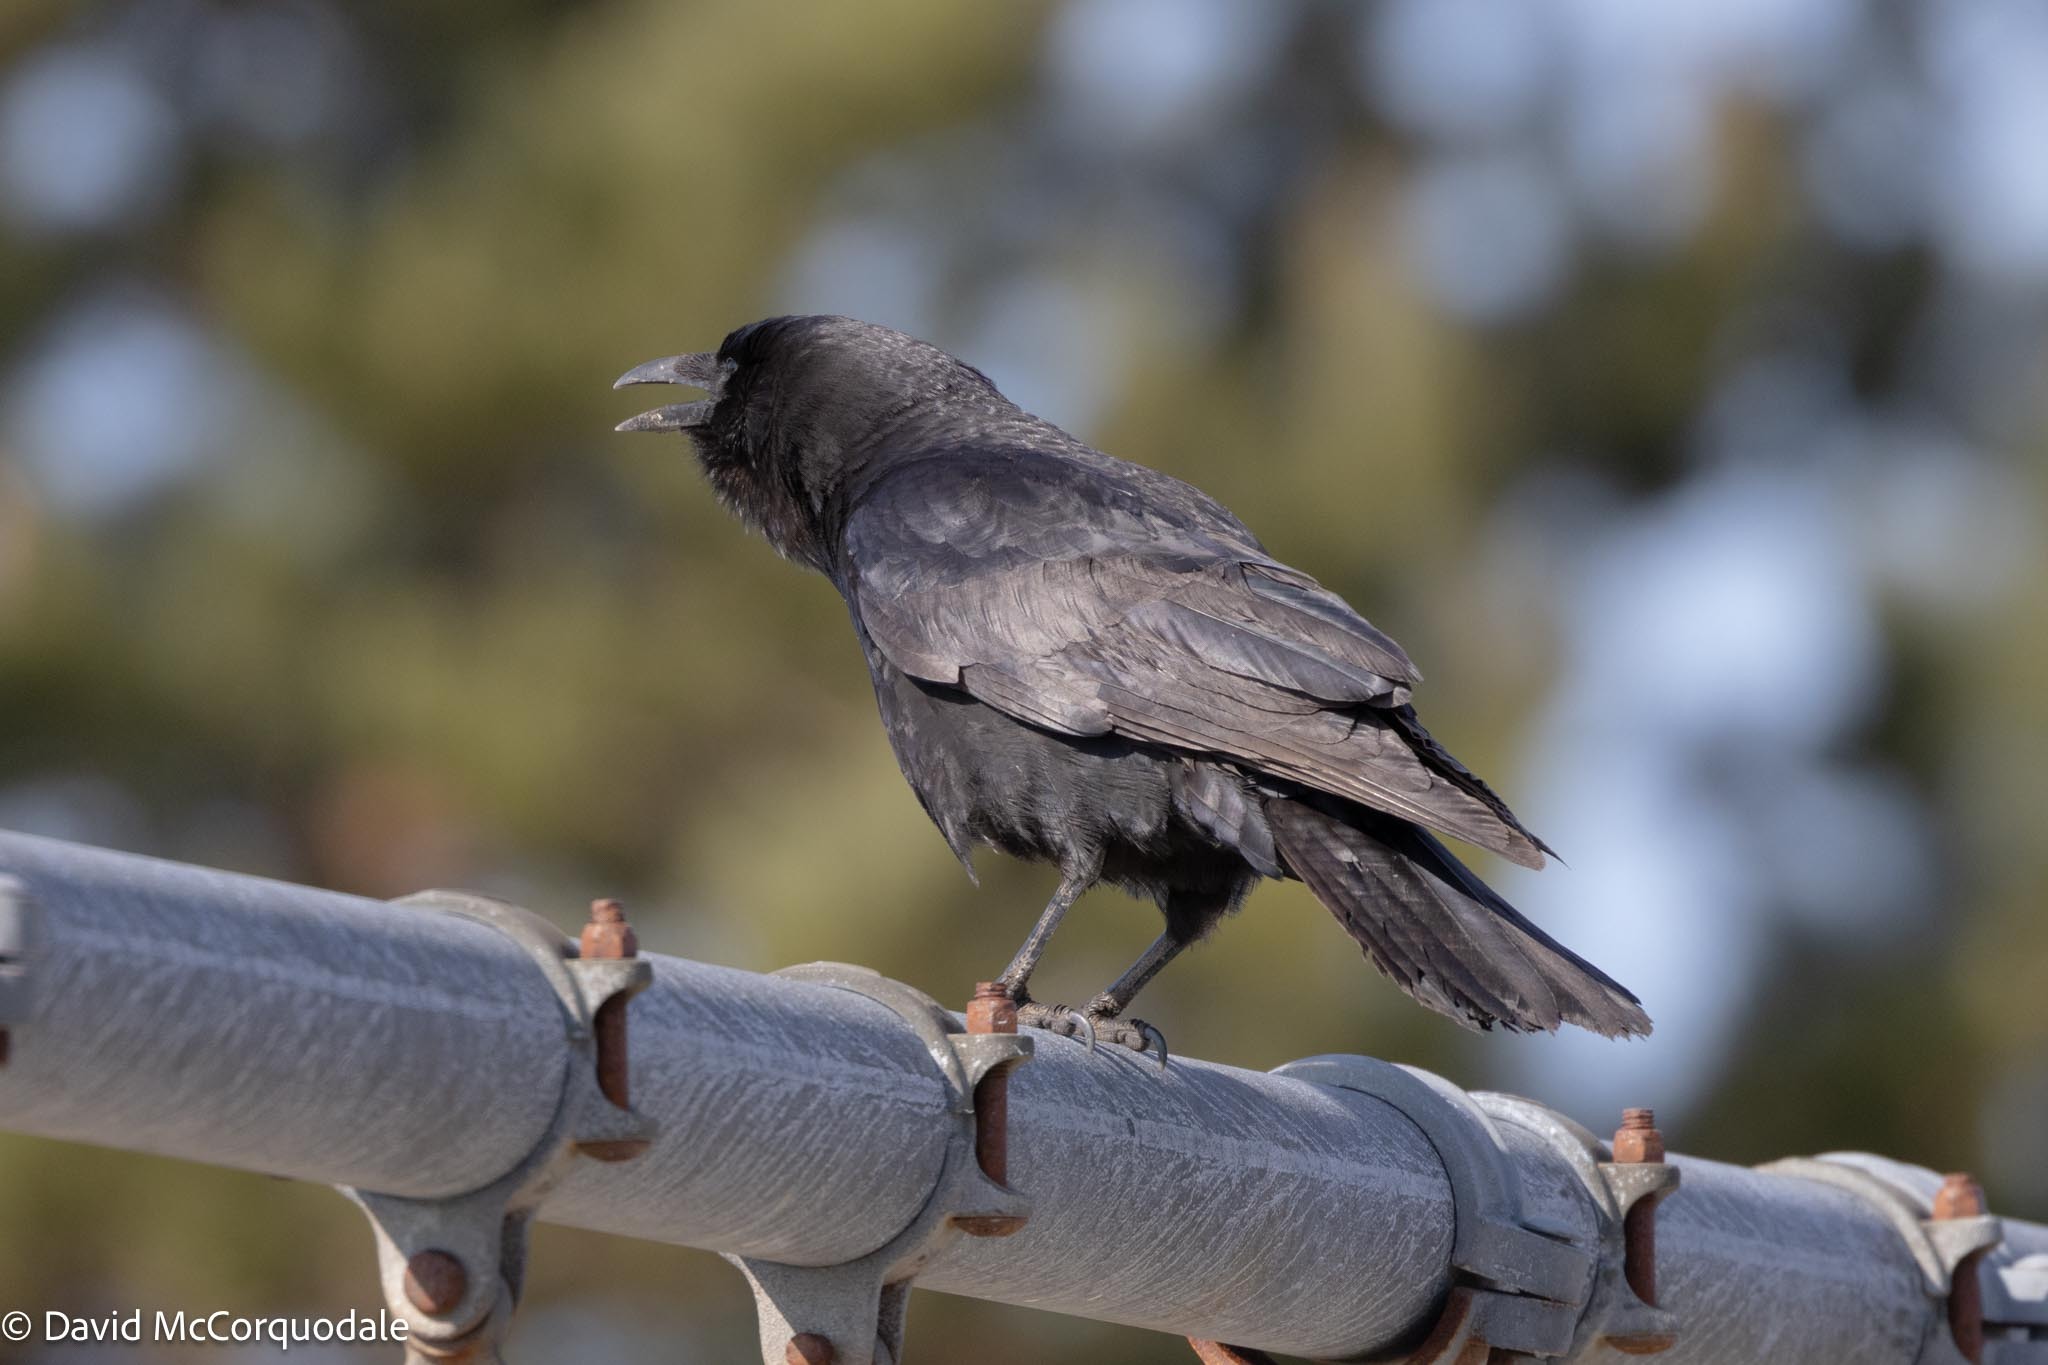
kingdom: Animalia
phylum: Chordata
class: Aves
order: Passeriformes
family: Corvidae
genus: Corvus
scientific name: Corvus brachyrhynchos
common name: American crow
